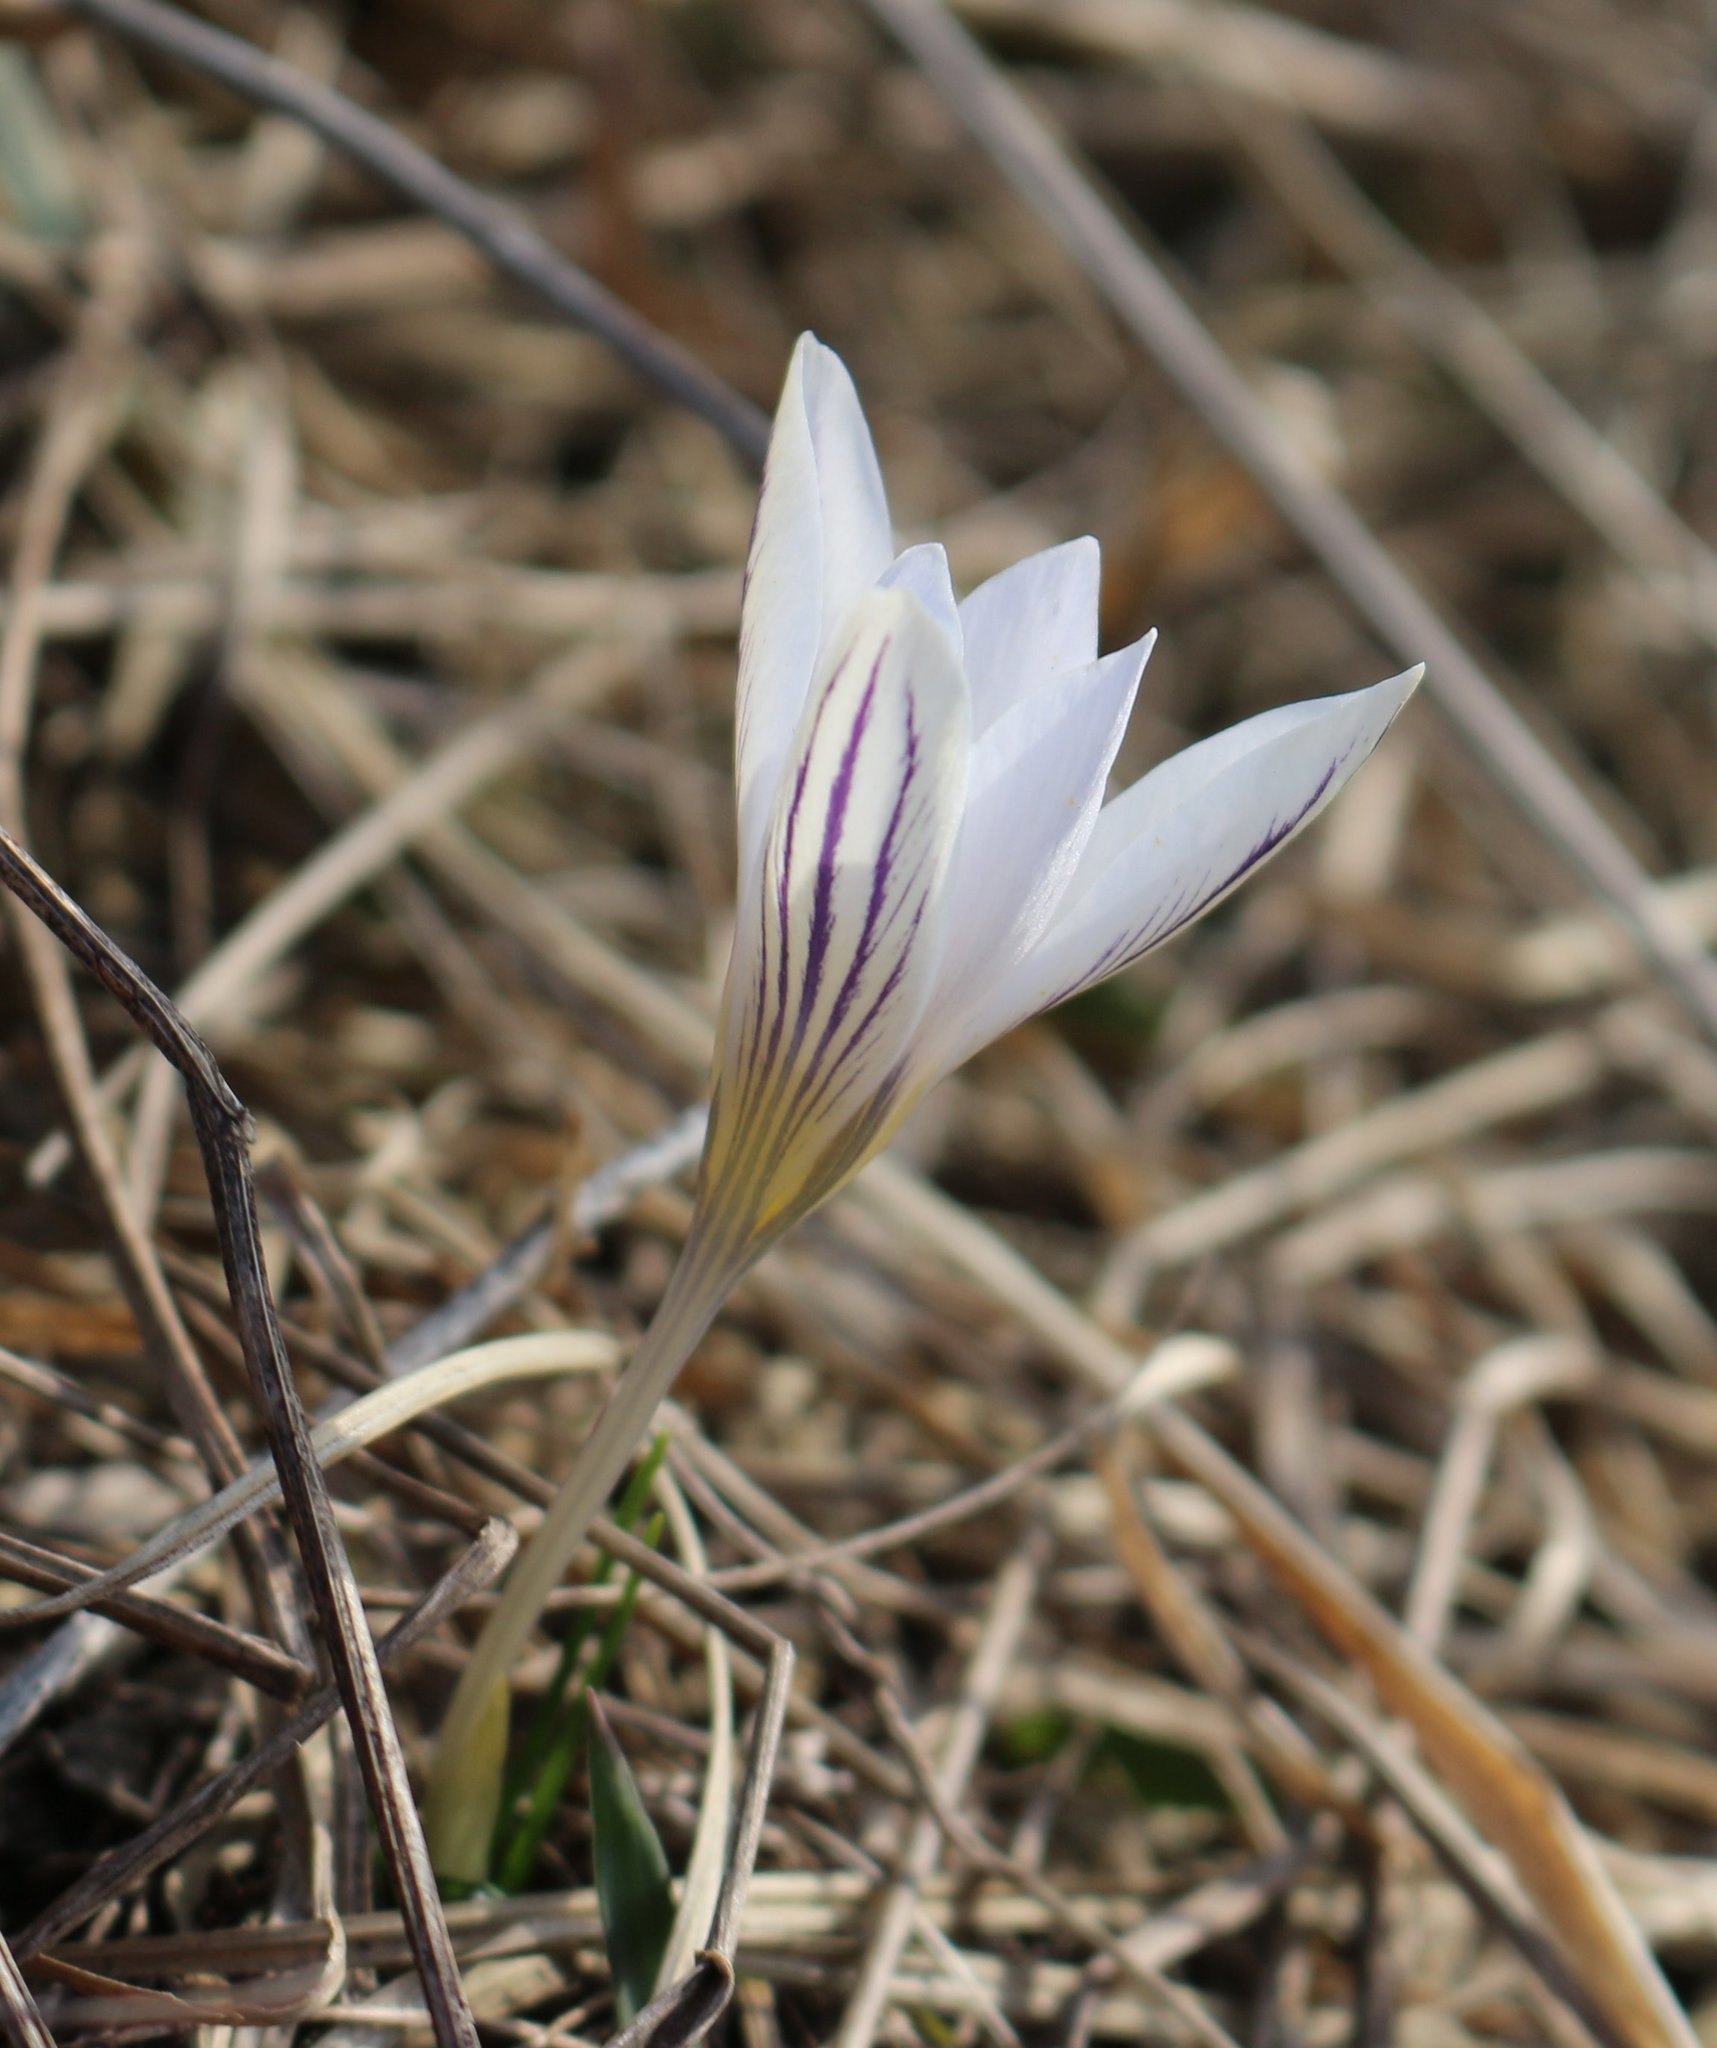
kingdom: Plantae
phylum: Tracheophyta
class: Liliopsida
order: Asparagales
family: Iridaceae
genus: Crocus
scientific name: Crocus reticulatus
